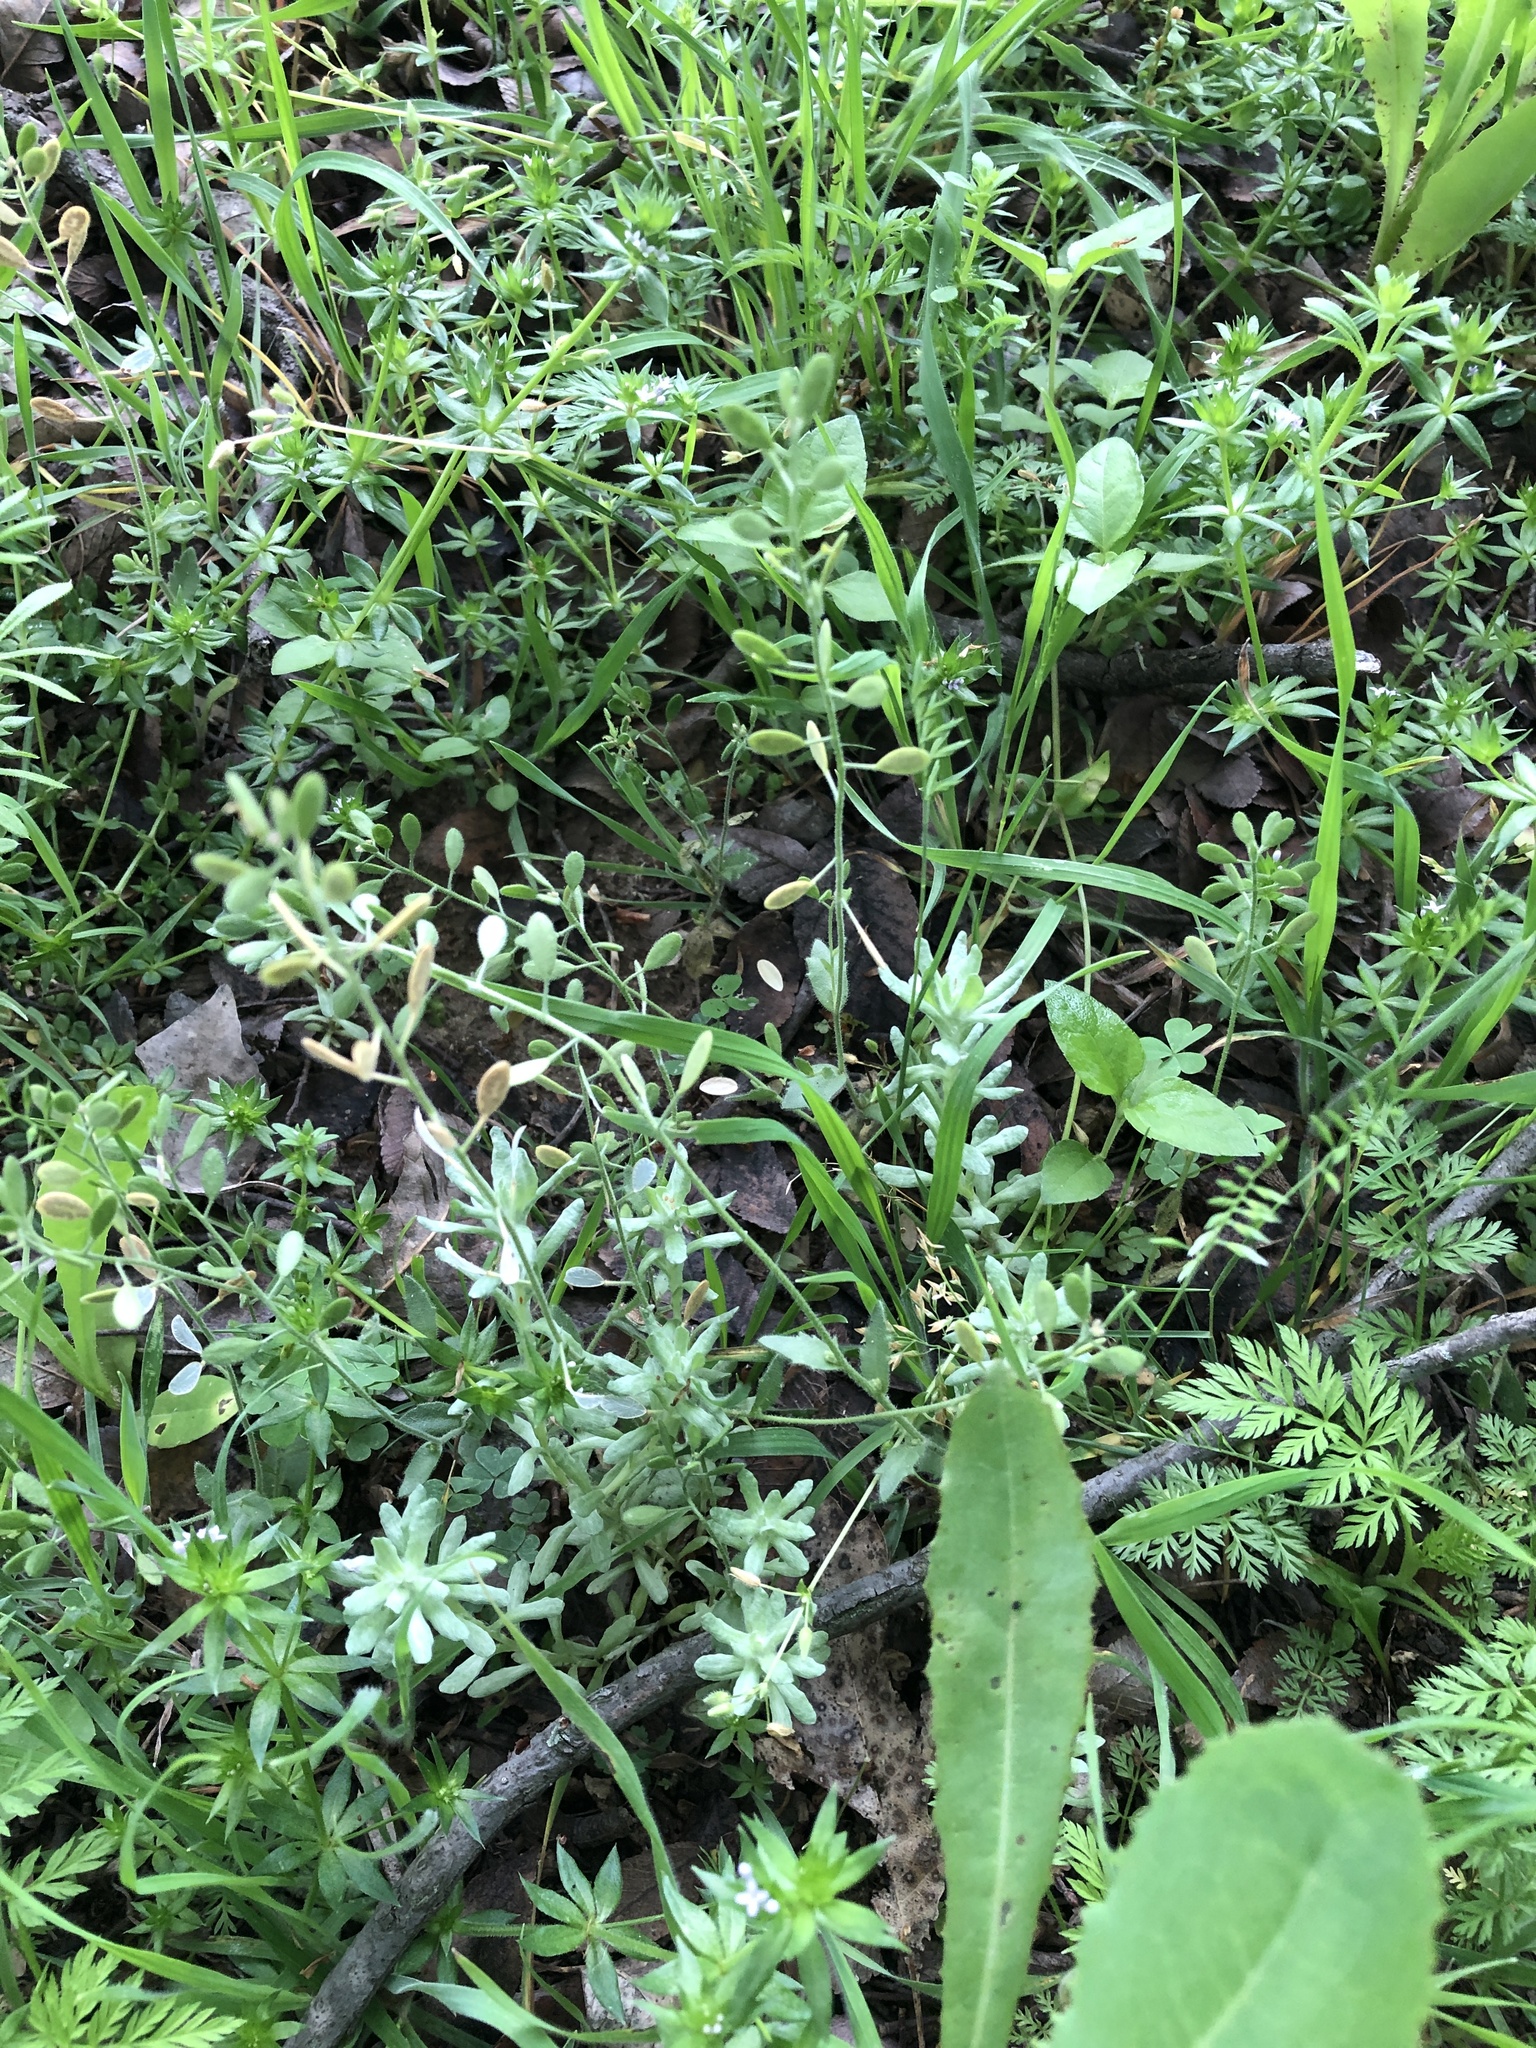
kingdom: Plantae
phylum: Tracheophyta
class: Magnoliopsida
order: Brassicales
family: Brassicaceae
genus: Tomostima
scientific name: Tomostima platycarpa
